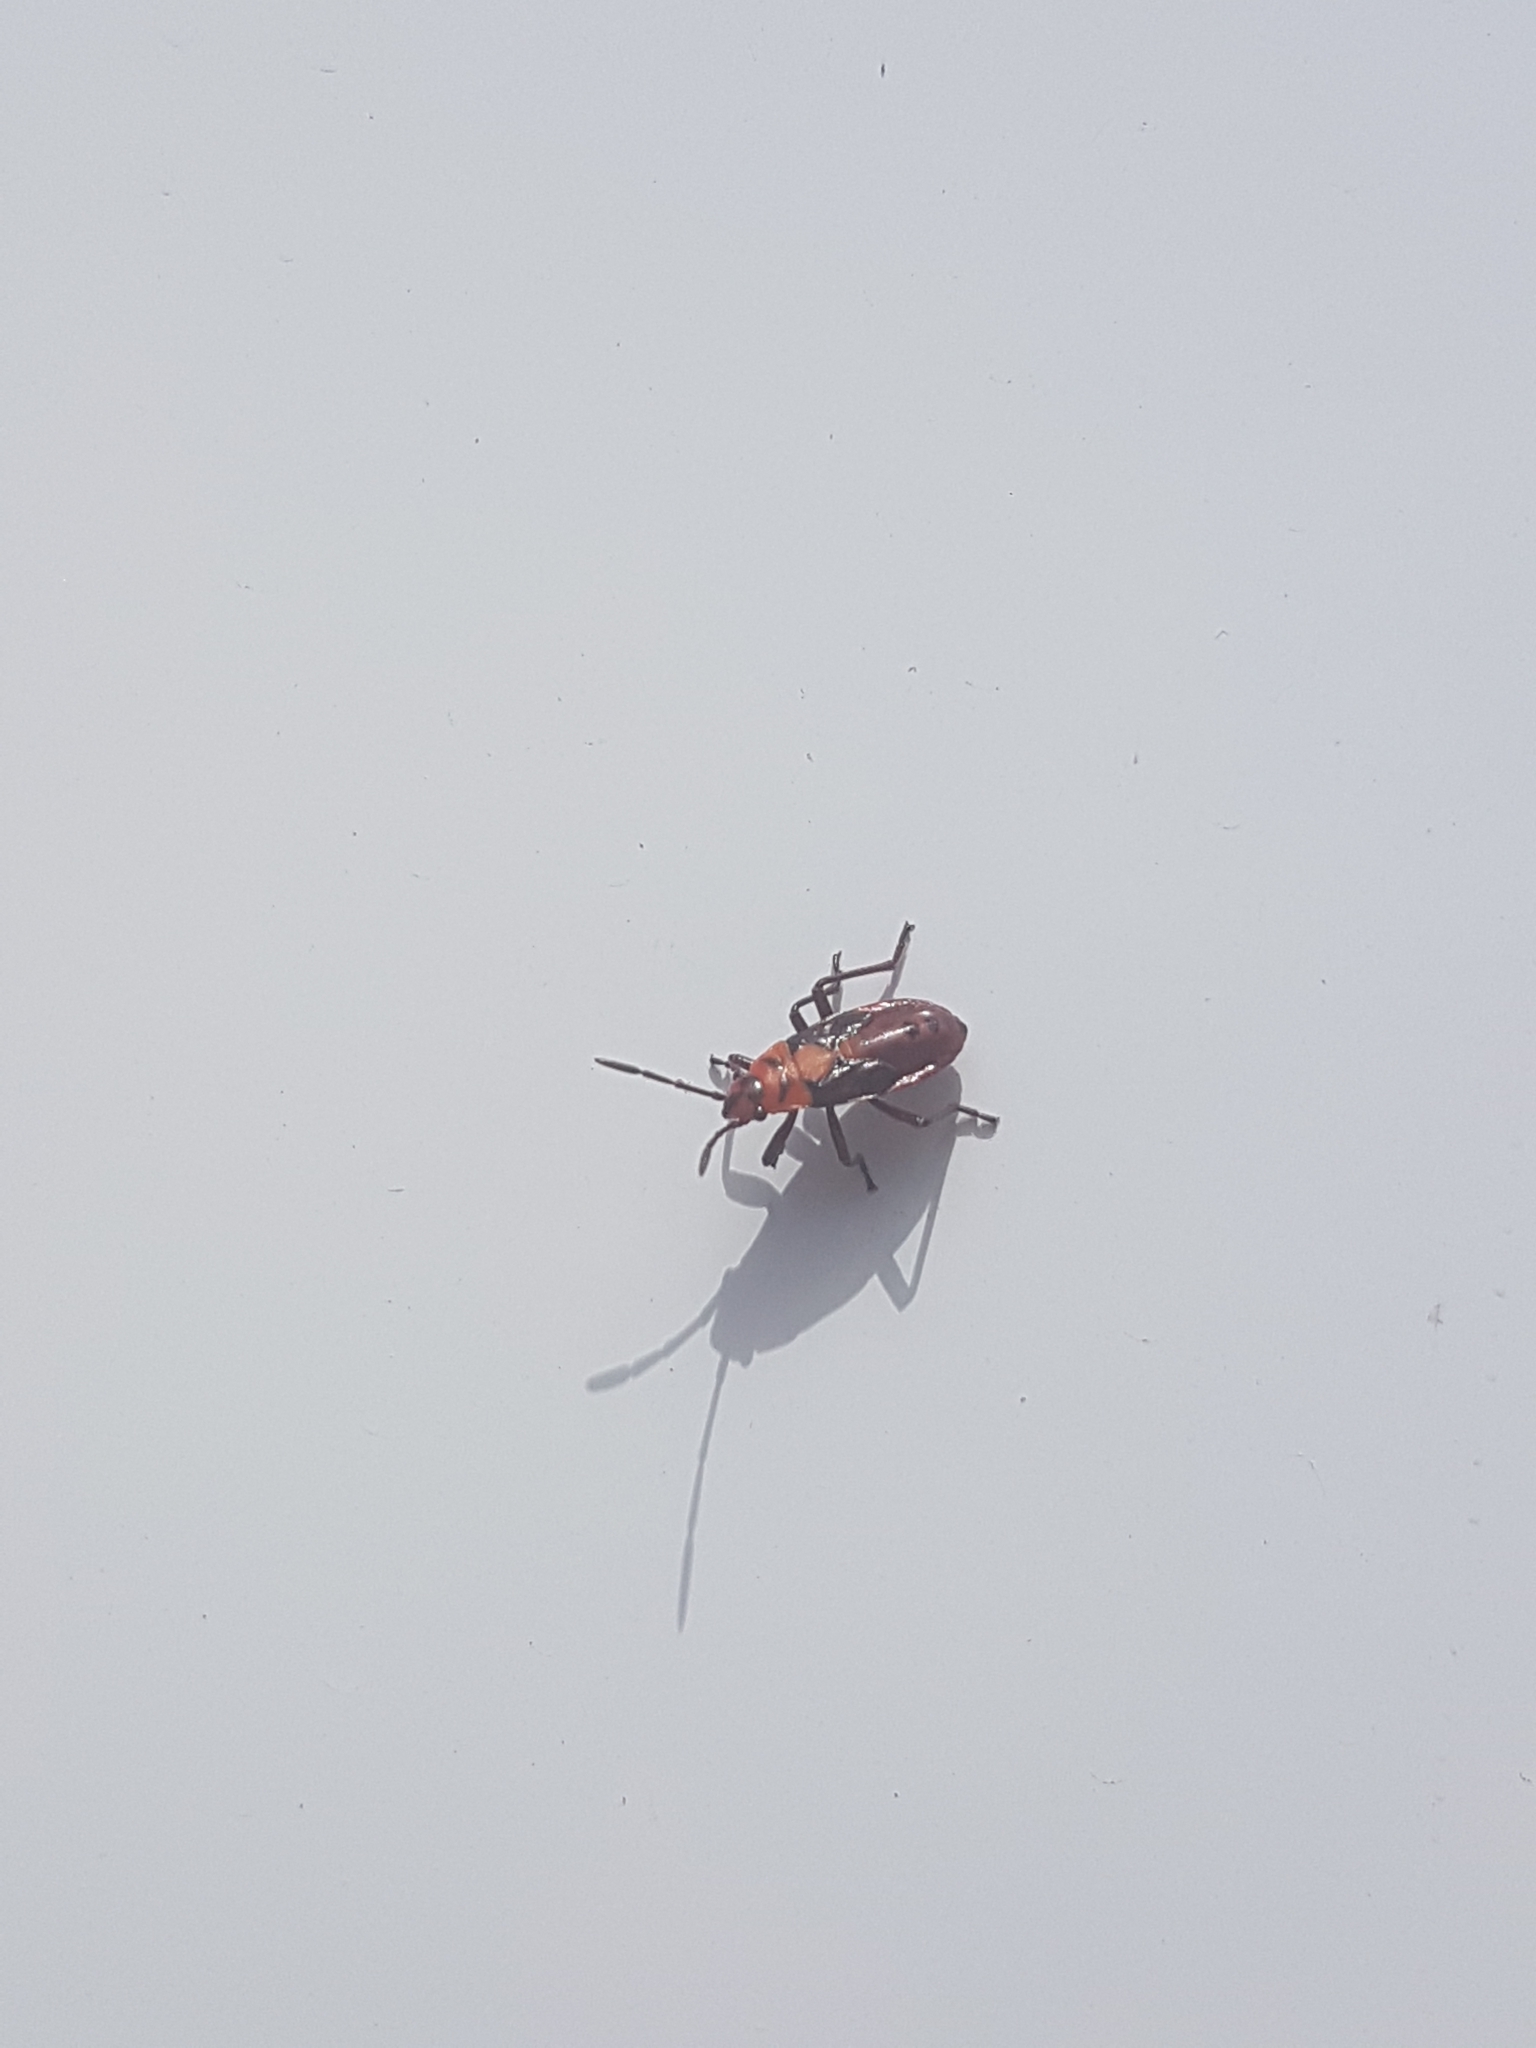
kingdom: Animalia
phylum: Arthropoda
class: Insecta
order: Hemiptera
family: Lygaeidae
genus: Spilostethus
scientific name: Spilostethus hospes
